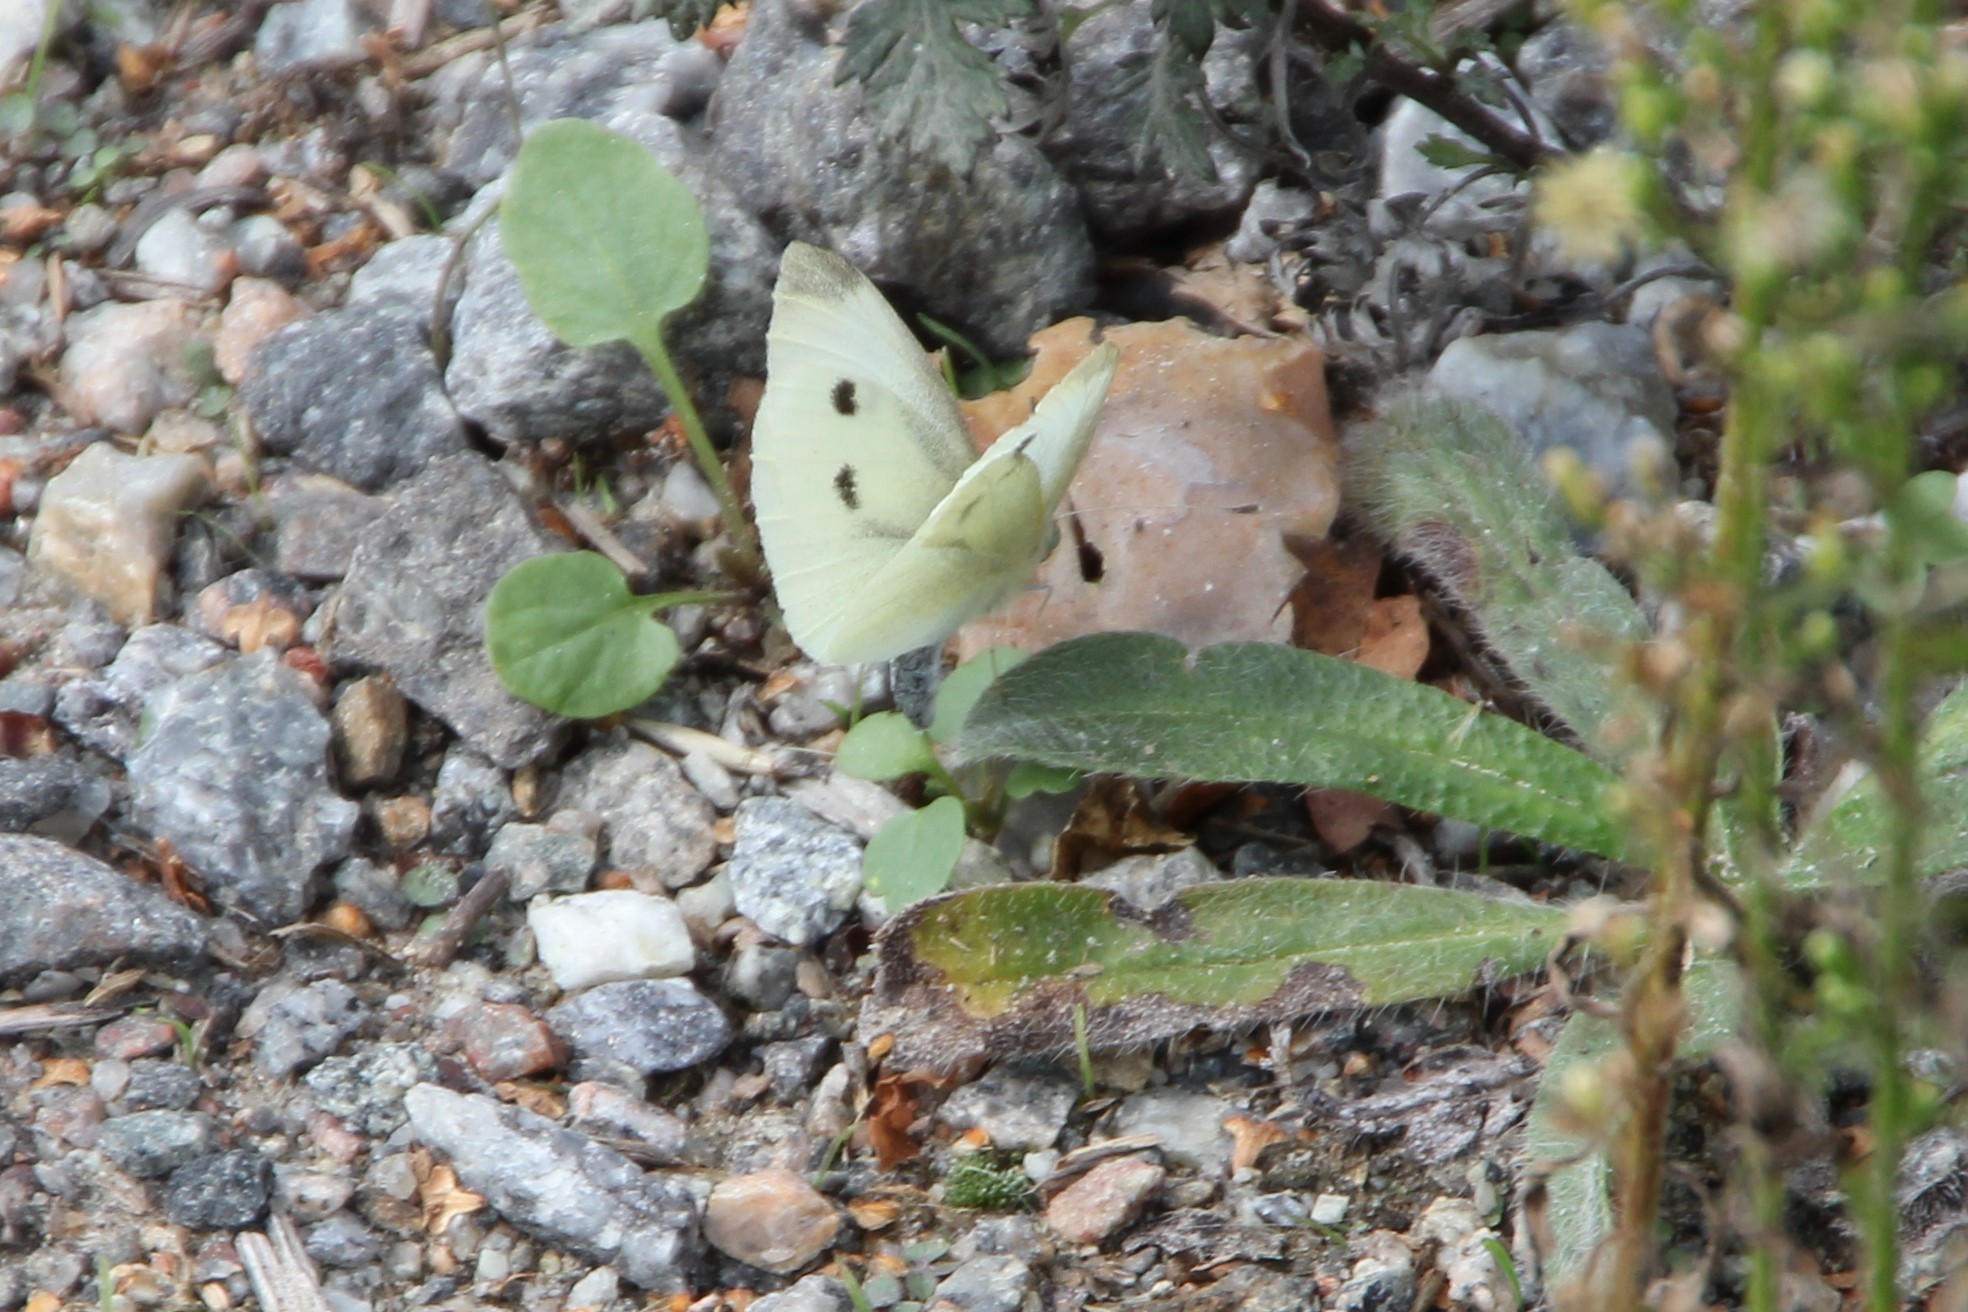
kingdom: Animalia
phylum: Arthropoda
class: Insecta
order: Lepidoptera
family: Pieridae
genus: Pieris
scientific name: Pieris rapae
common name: Small white
